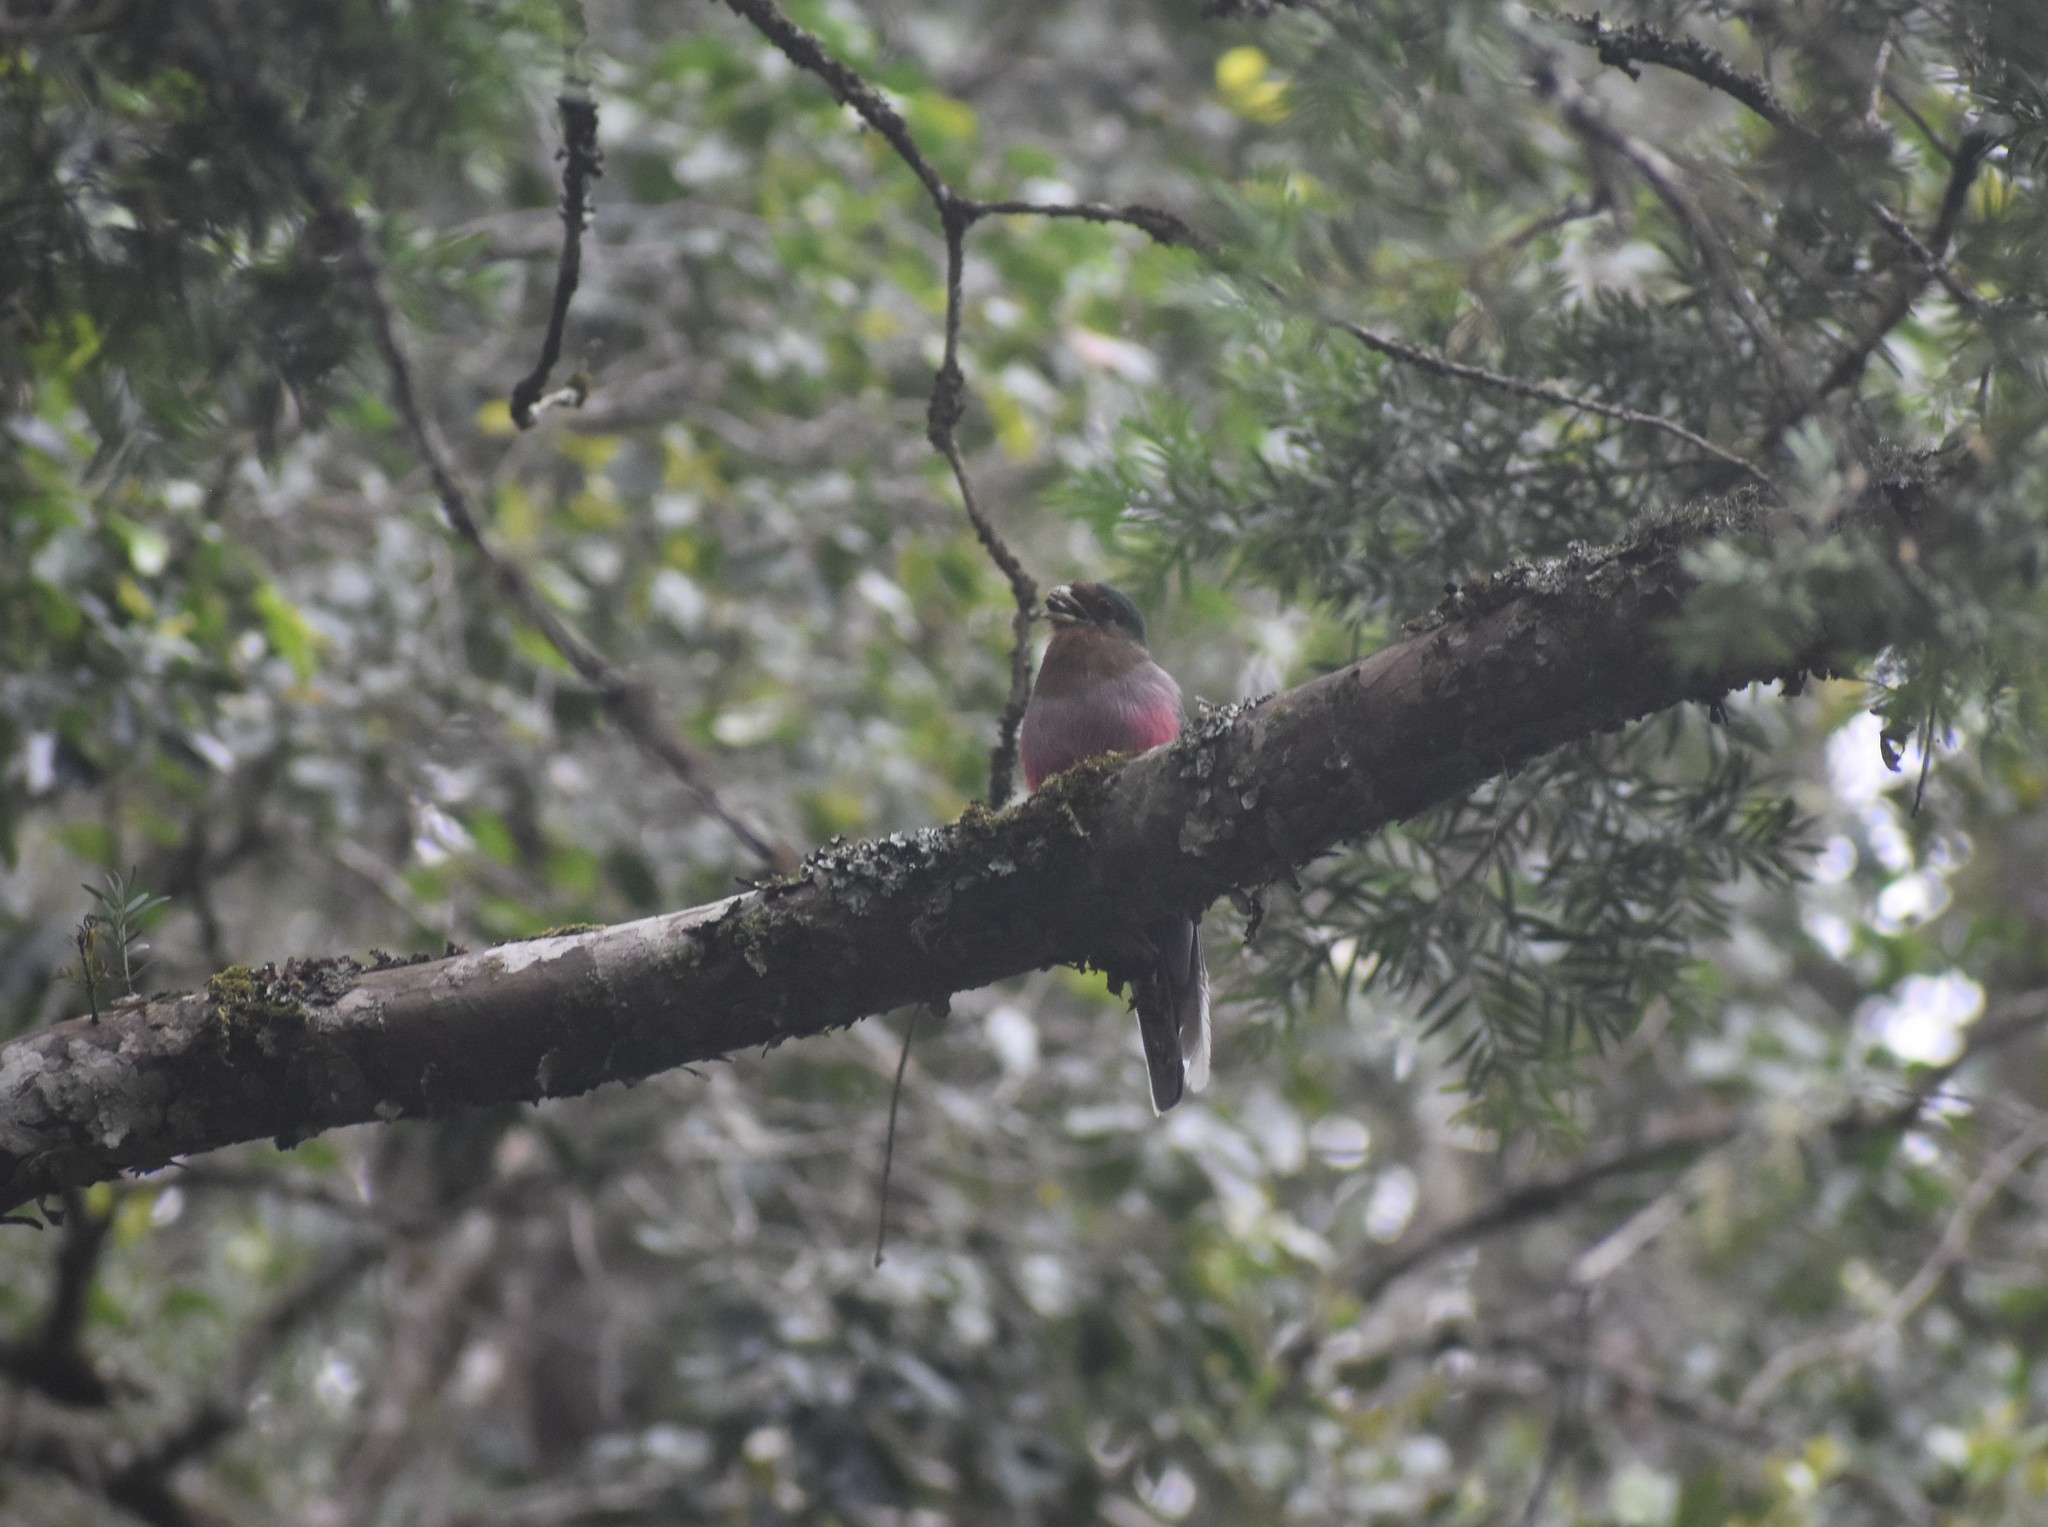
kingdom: Animalia
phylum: Chordata
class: Aves
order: Trogoniformes
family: Trogonidae
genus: Apaloderma
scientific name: Apaloderma narina
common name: Narina trogon
